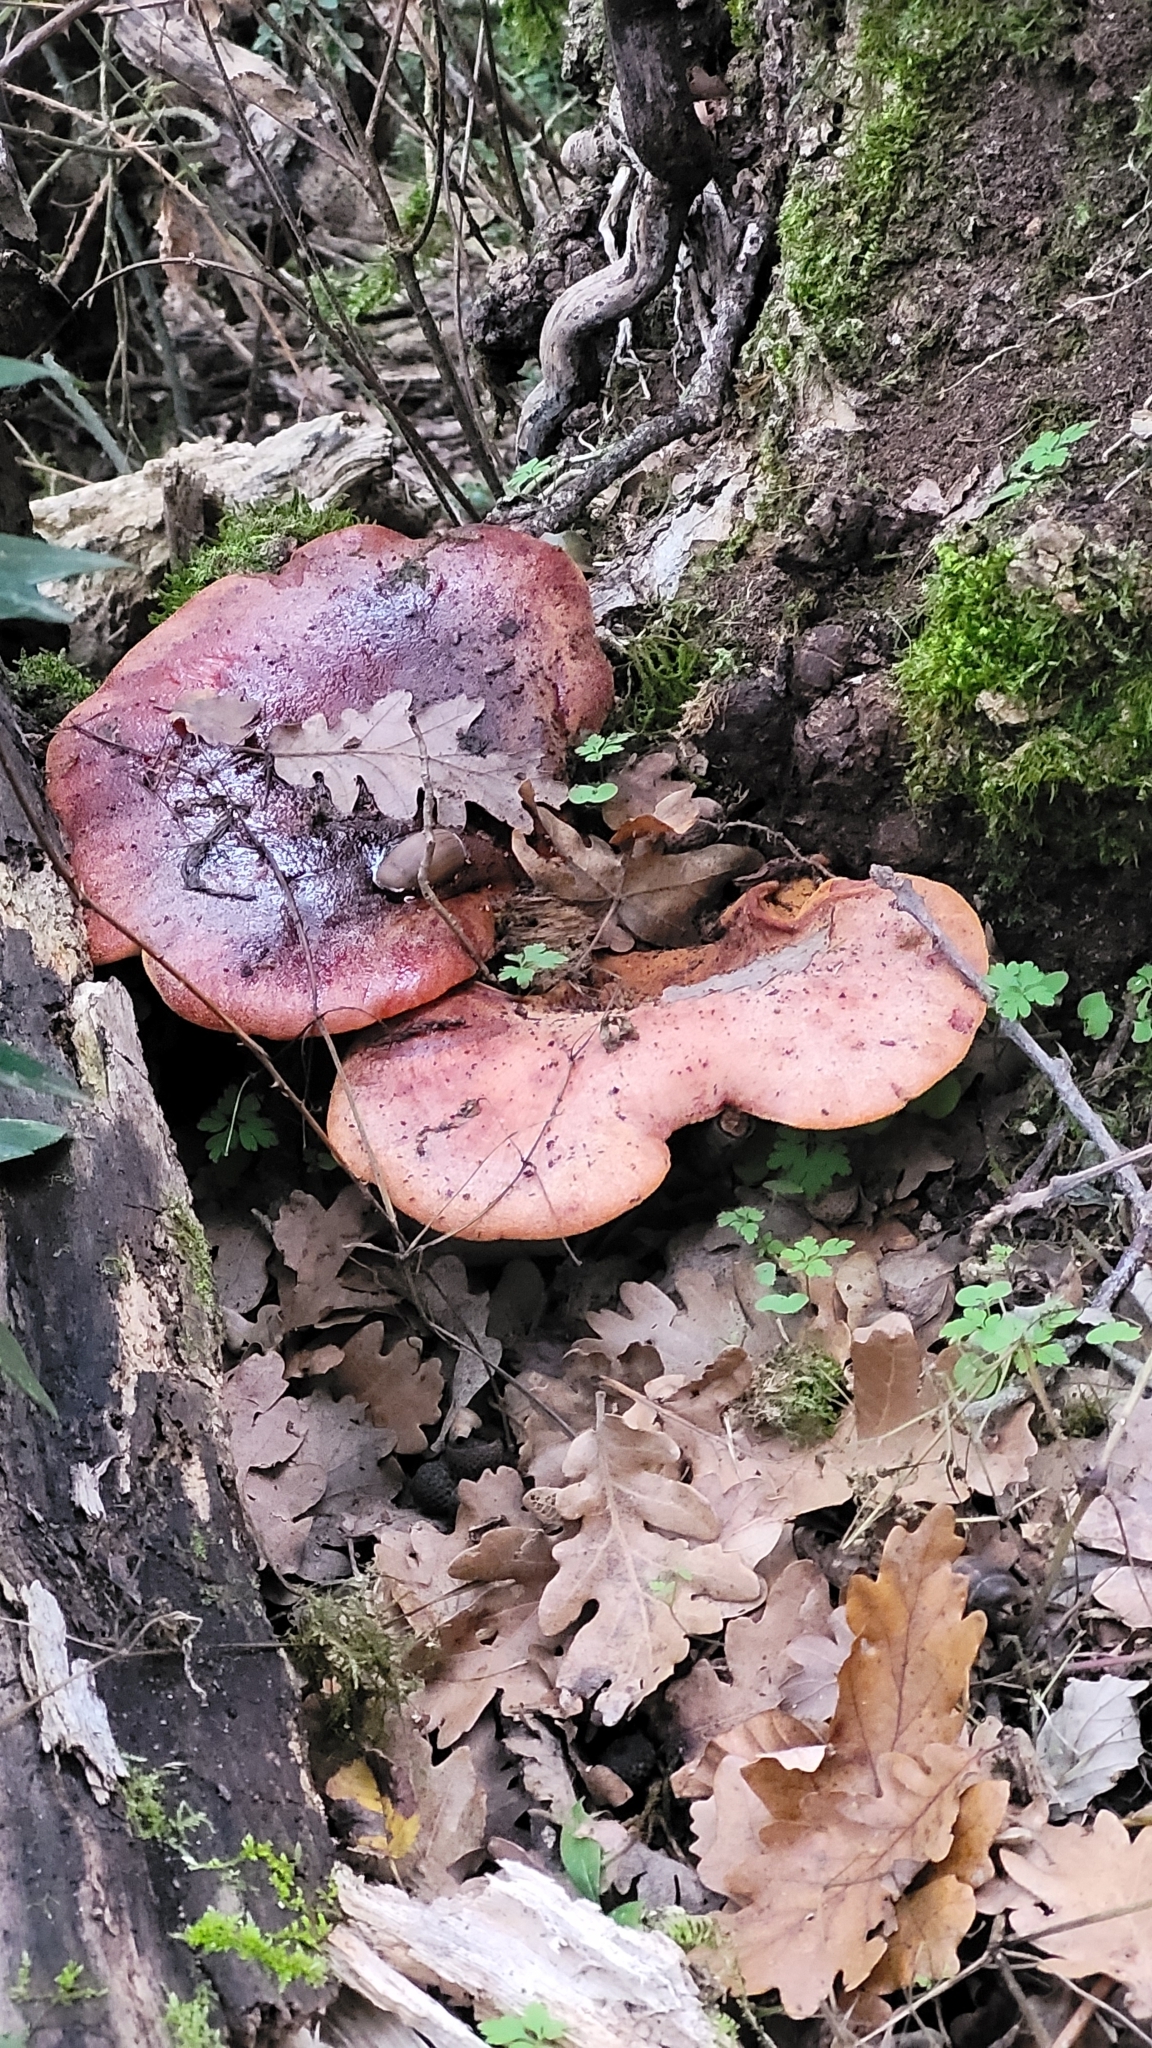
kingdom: Fungi
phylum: Basidiomycota
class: Agaricomycetes
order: Agaricales
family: Fistulinaceae
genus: Fistulina
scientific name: Fistulina hepatica
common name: Beef-steak fungus
